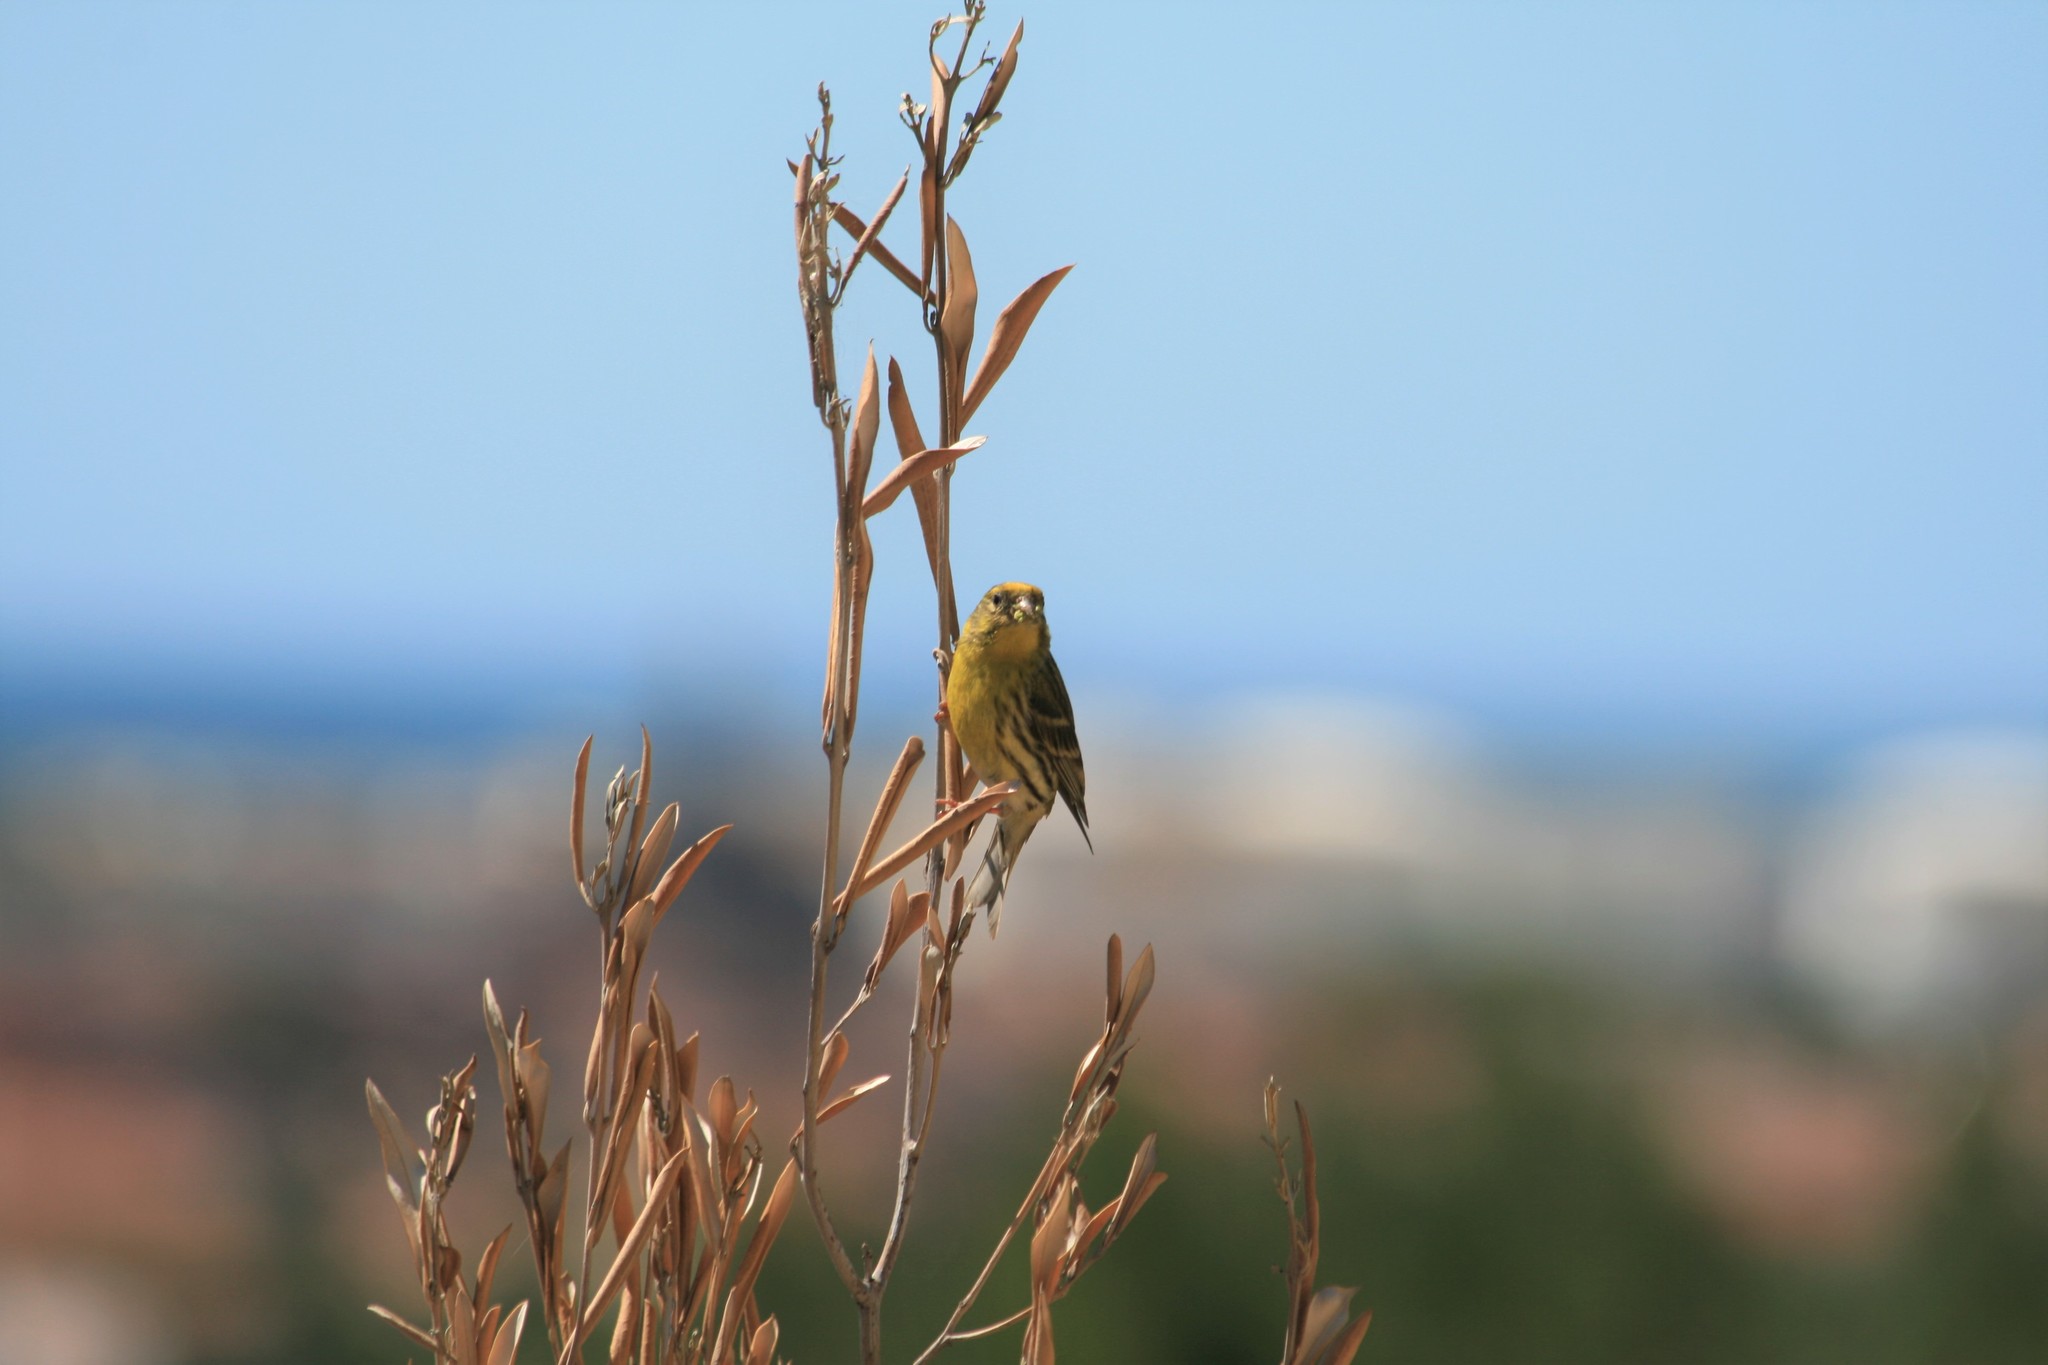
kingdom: Animalia
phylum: Chordata
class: Aves
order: Passeriformes
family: Fringillidae
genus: Serinus
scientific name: Serinus serinus
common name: European serin
